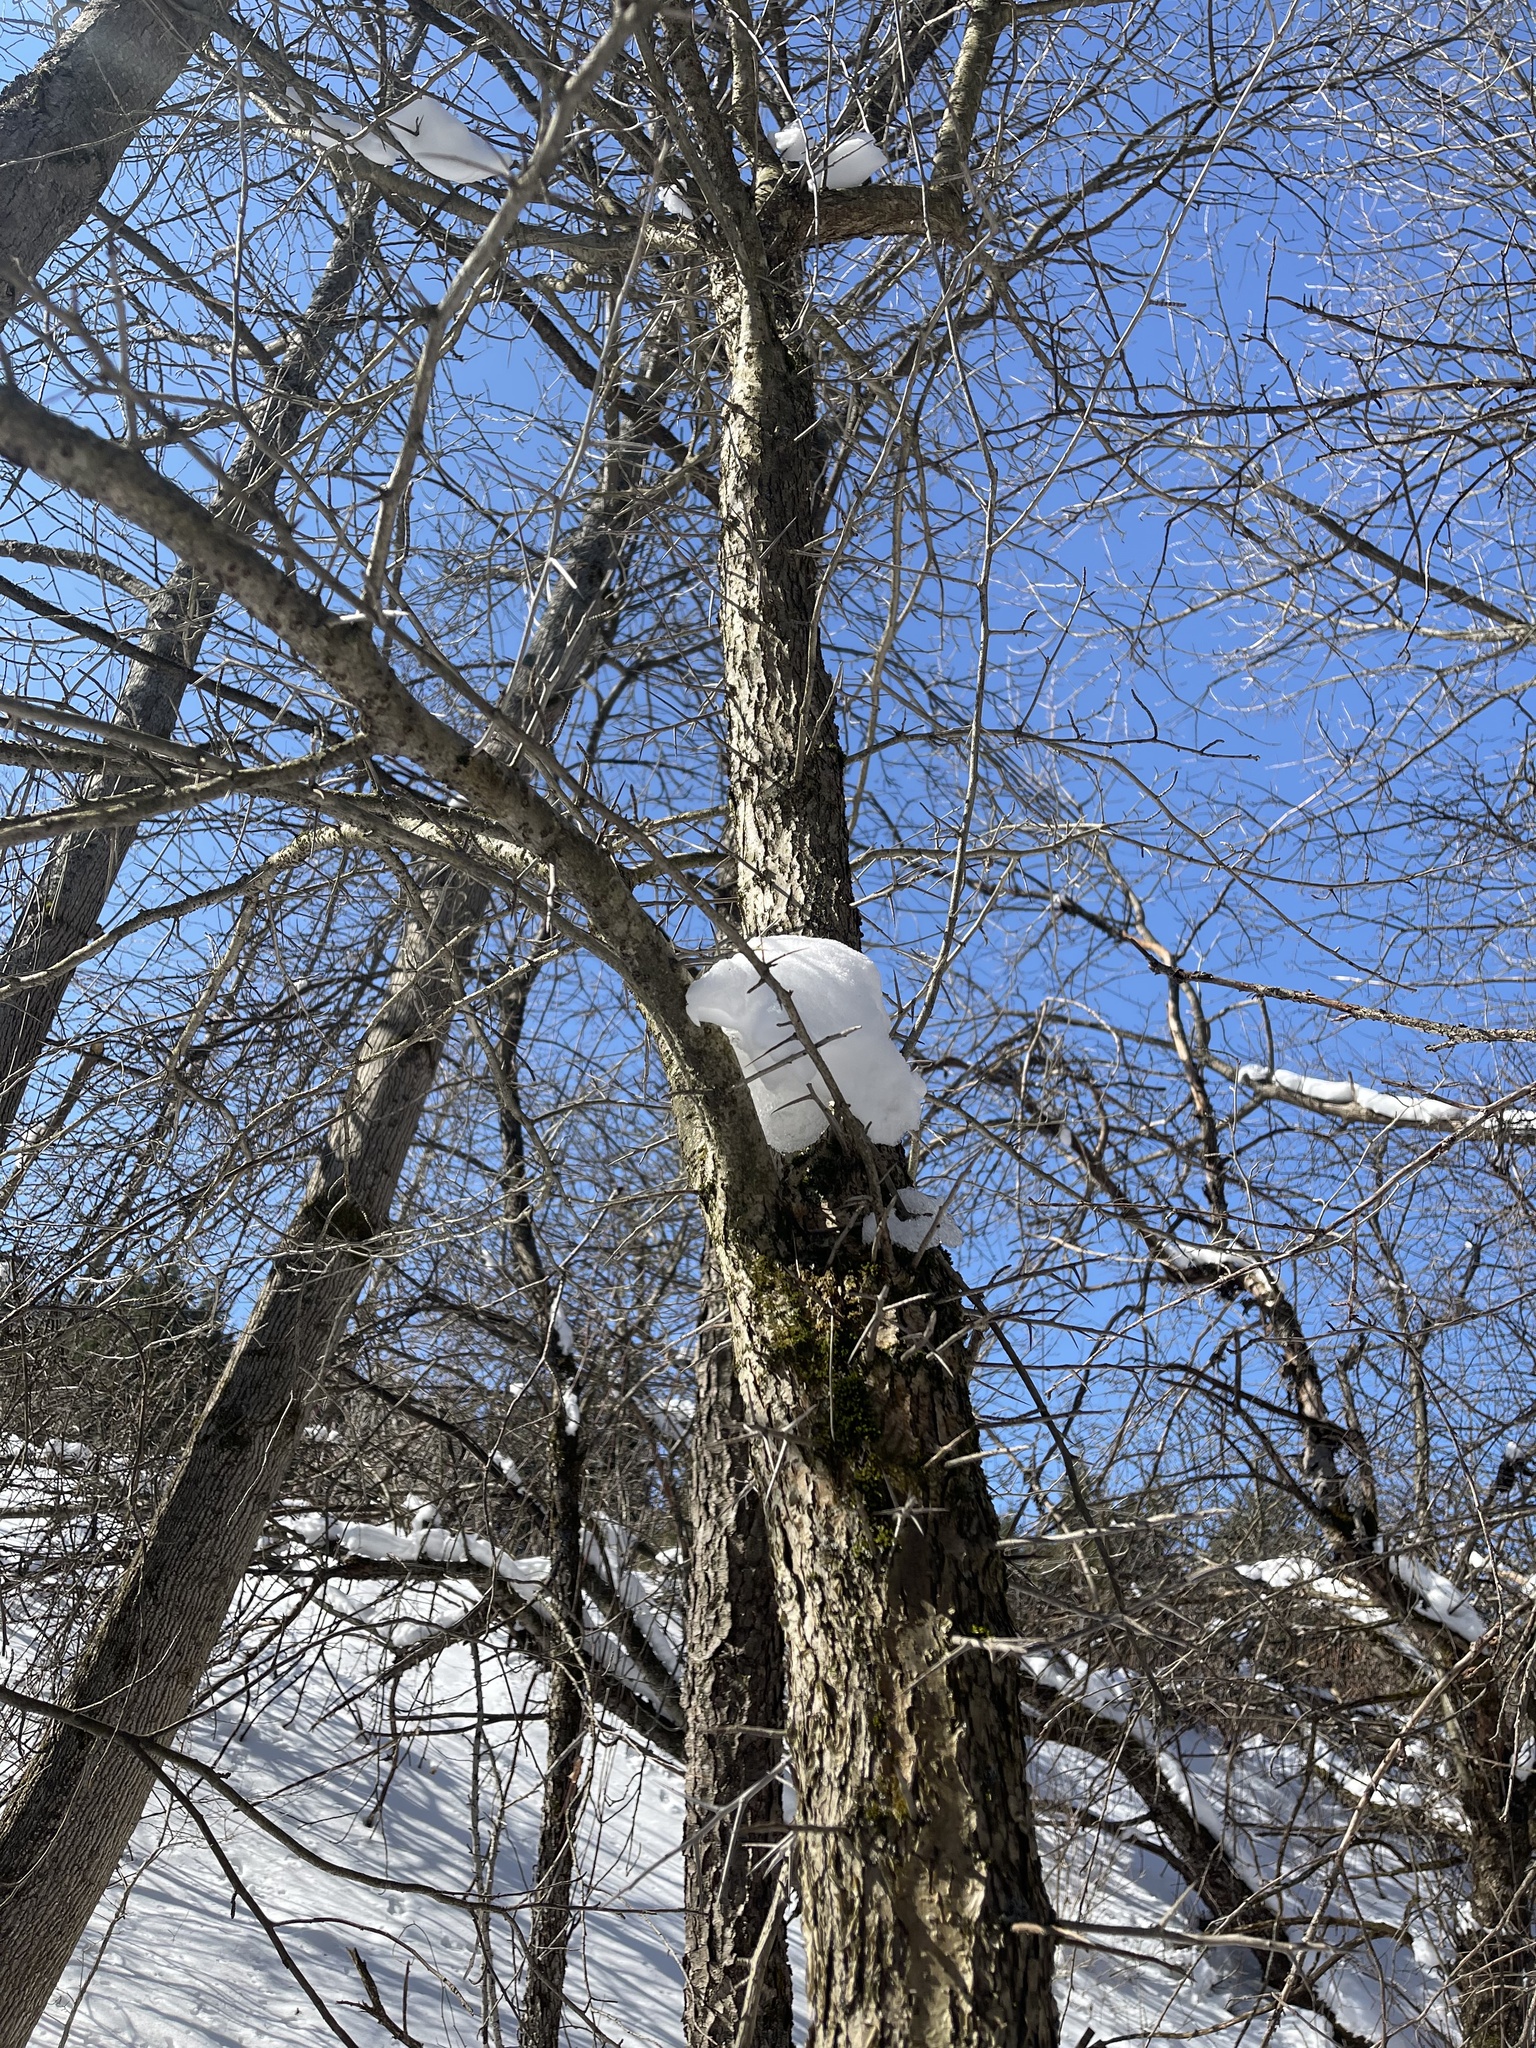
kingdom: Plantae
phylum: Tracheophyta
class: Magnoliopsida
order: Rosales
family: Rosaceae
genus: Crataegus
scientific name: Crataegus
